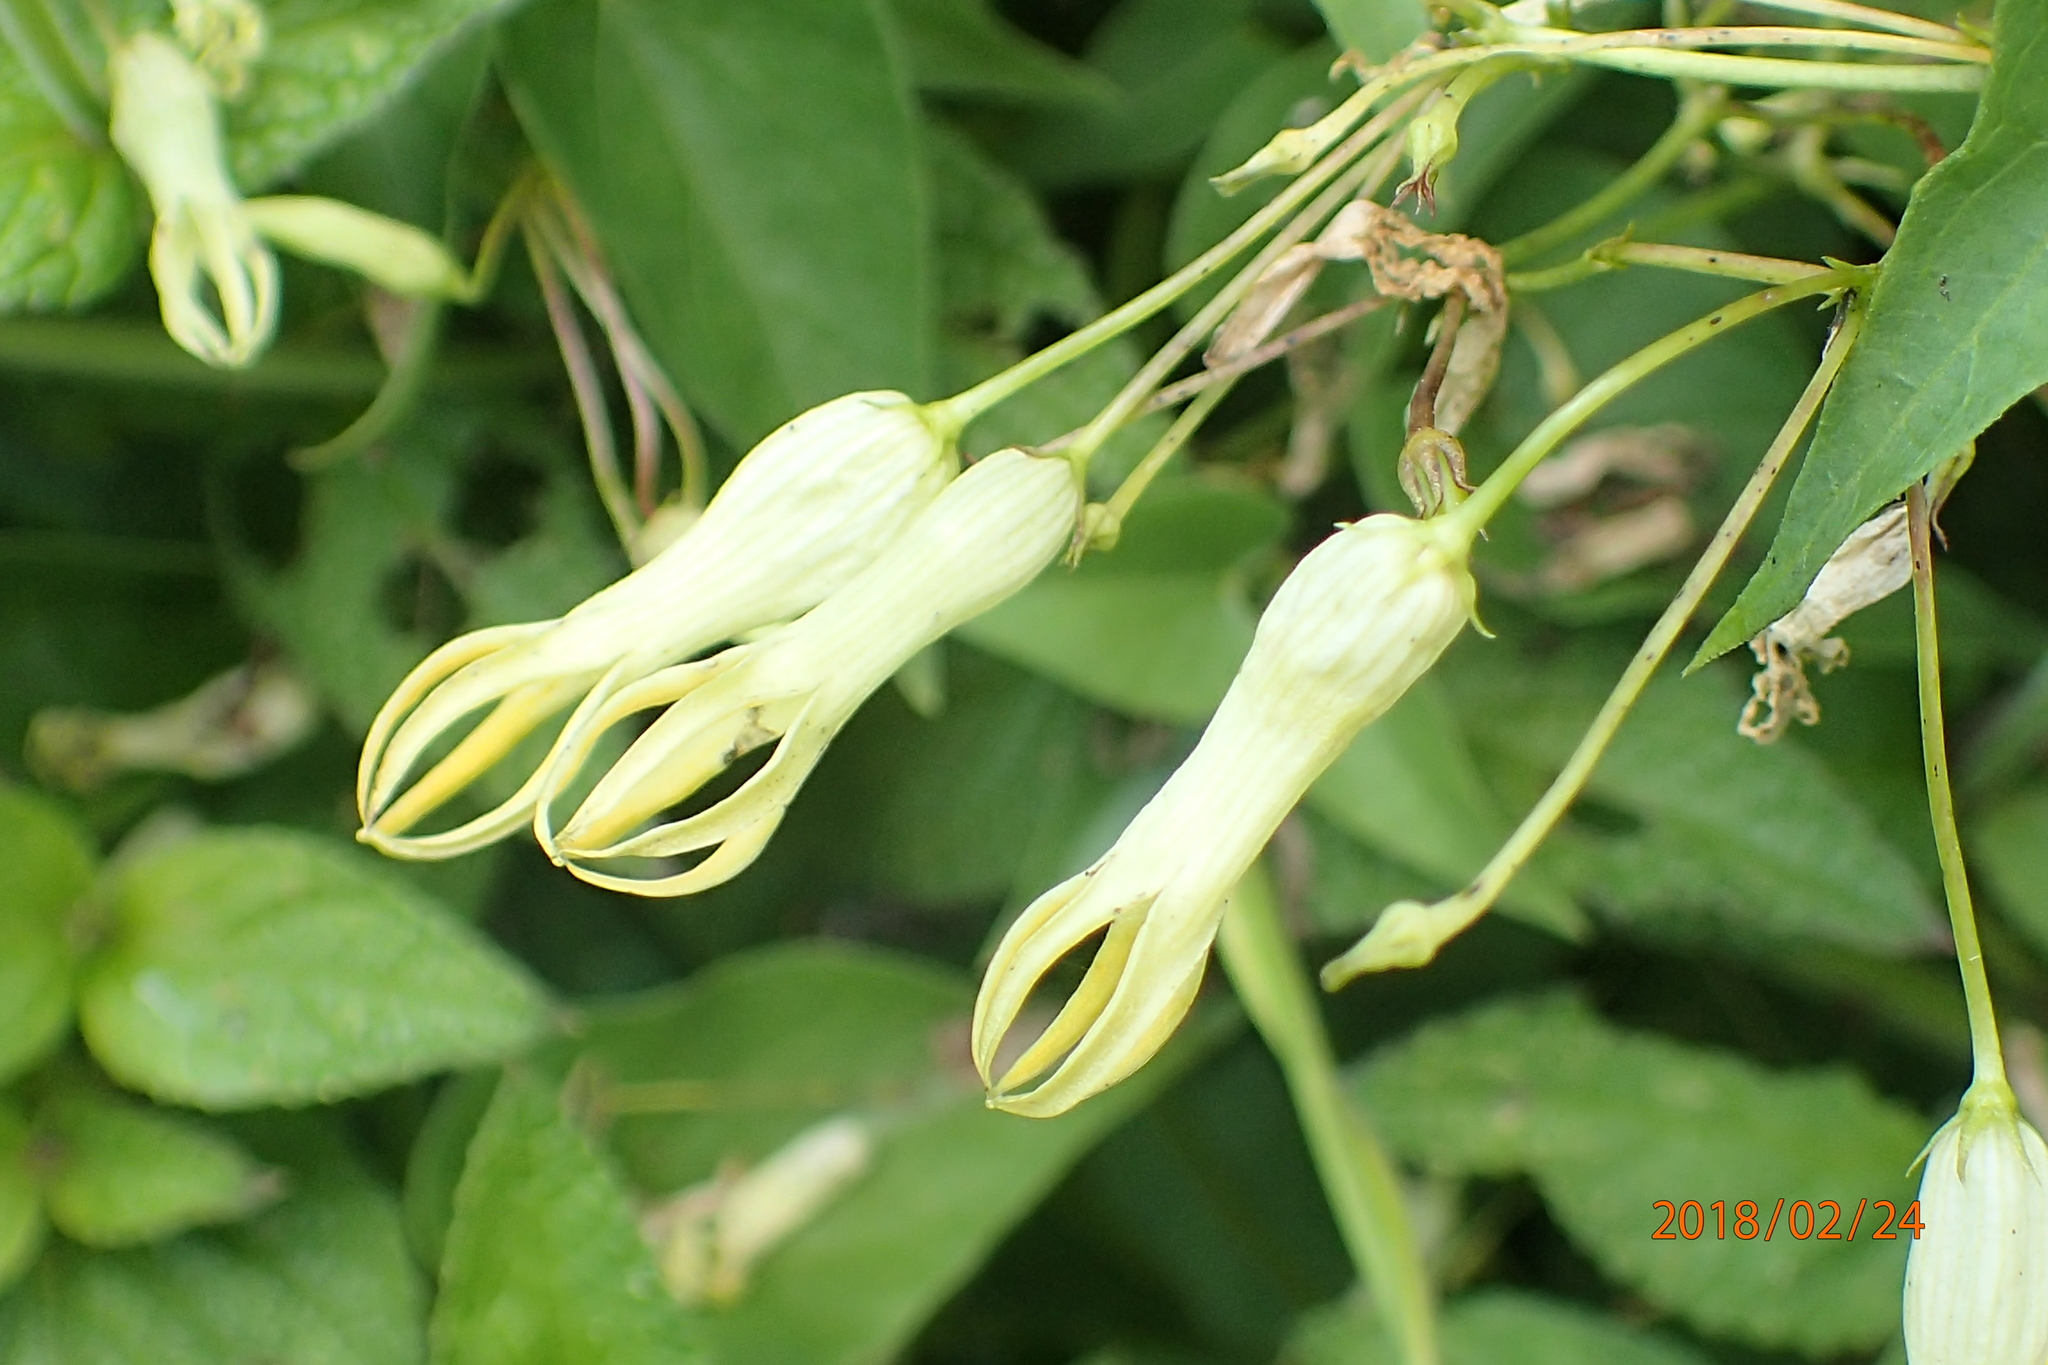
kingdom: Plantae
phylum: Tracheophyta
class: Magnoliopsida
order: Gentianales
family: Apocynaceae
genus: Riocreuxia
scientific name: Riocreuxia polyantha
